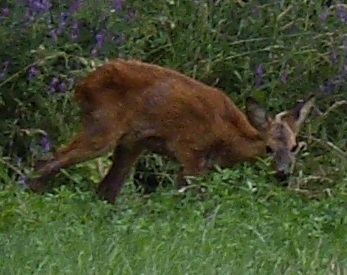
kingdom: Animalia
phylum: Chordata
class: Mammalia
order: Artiodactyla
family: Cervidae
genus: Capreolus
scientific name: Capreolus capreolus
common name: Western roe deer
